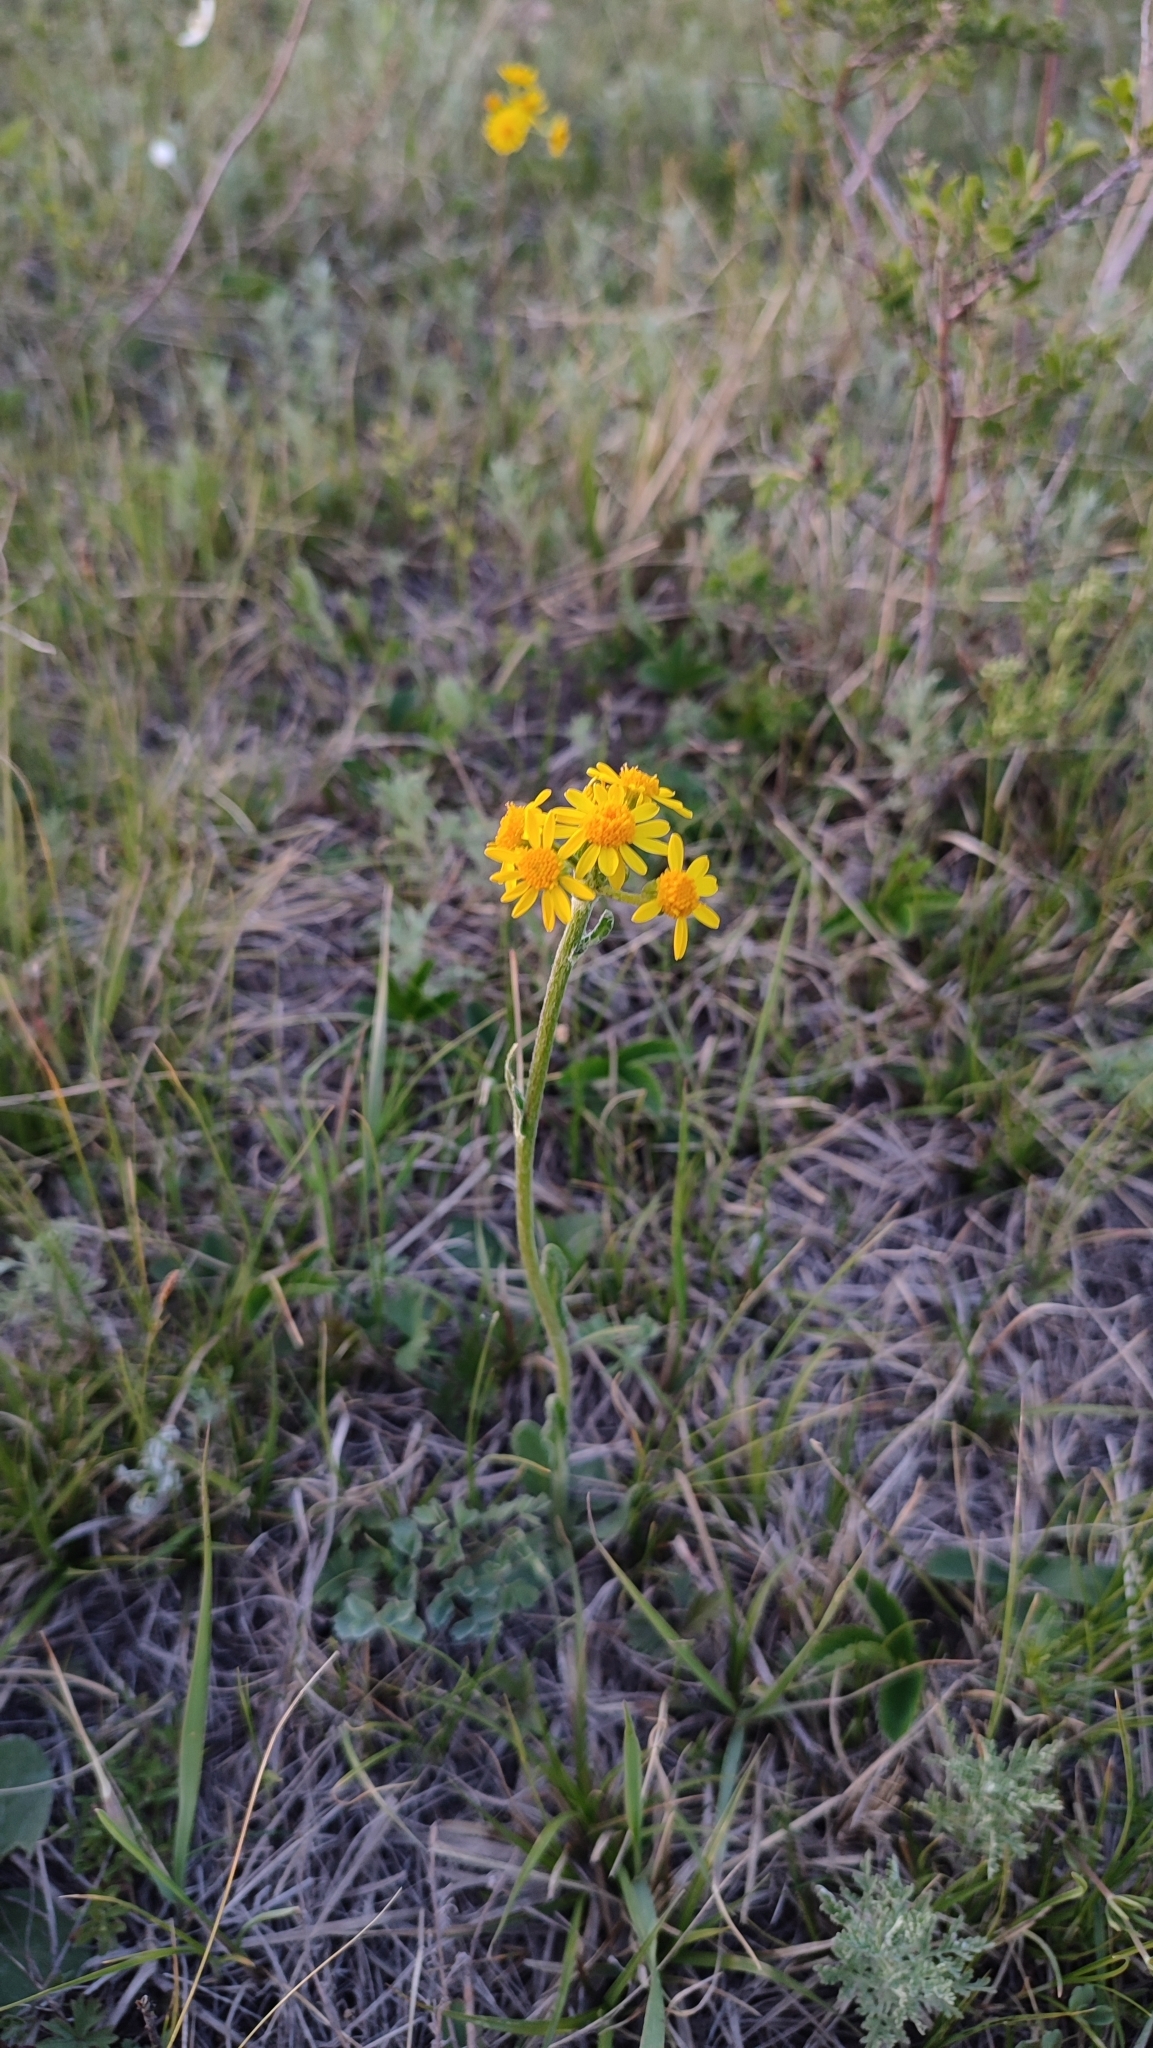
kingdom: Plantae
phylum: Tracheophyta
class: Magnoliopsida
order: Asterales
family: Asteraceae
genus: Tephroseris
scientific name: Tephroseris integrifolia
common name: Field fleawort
